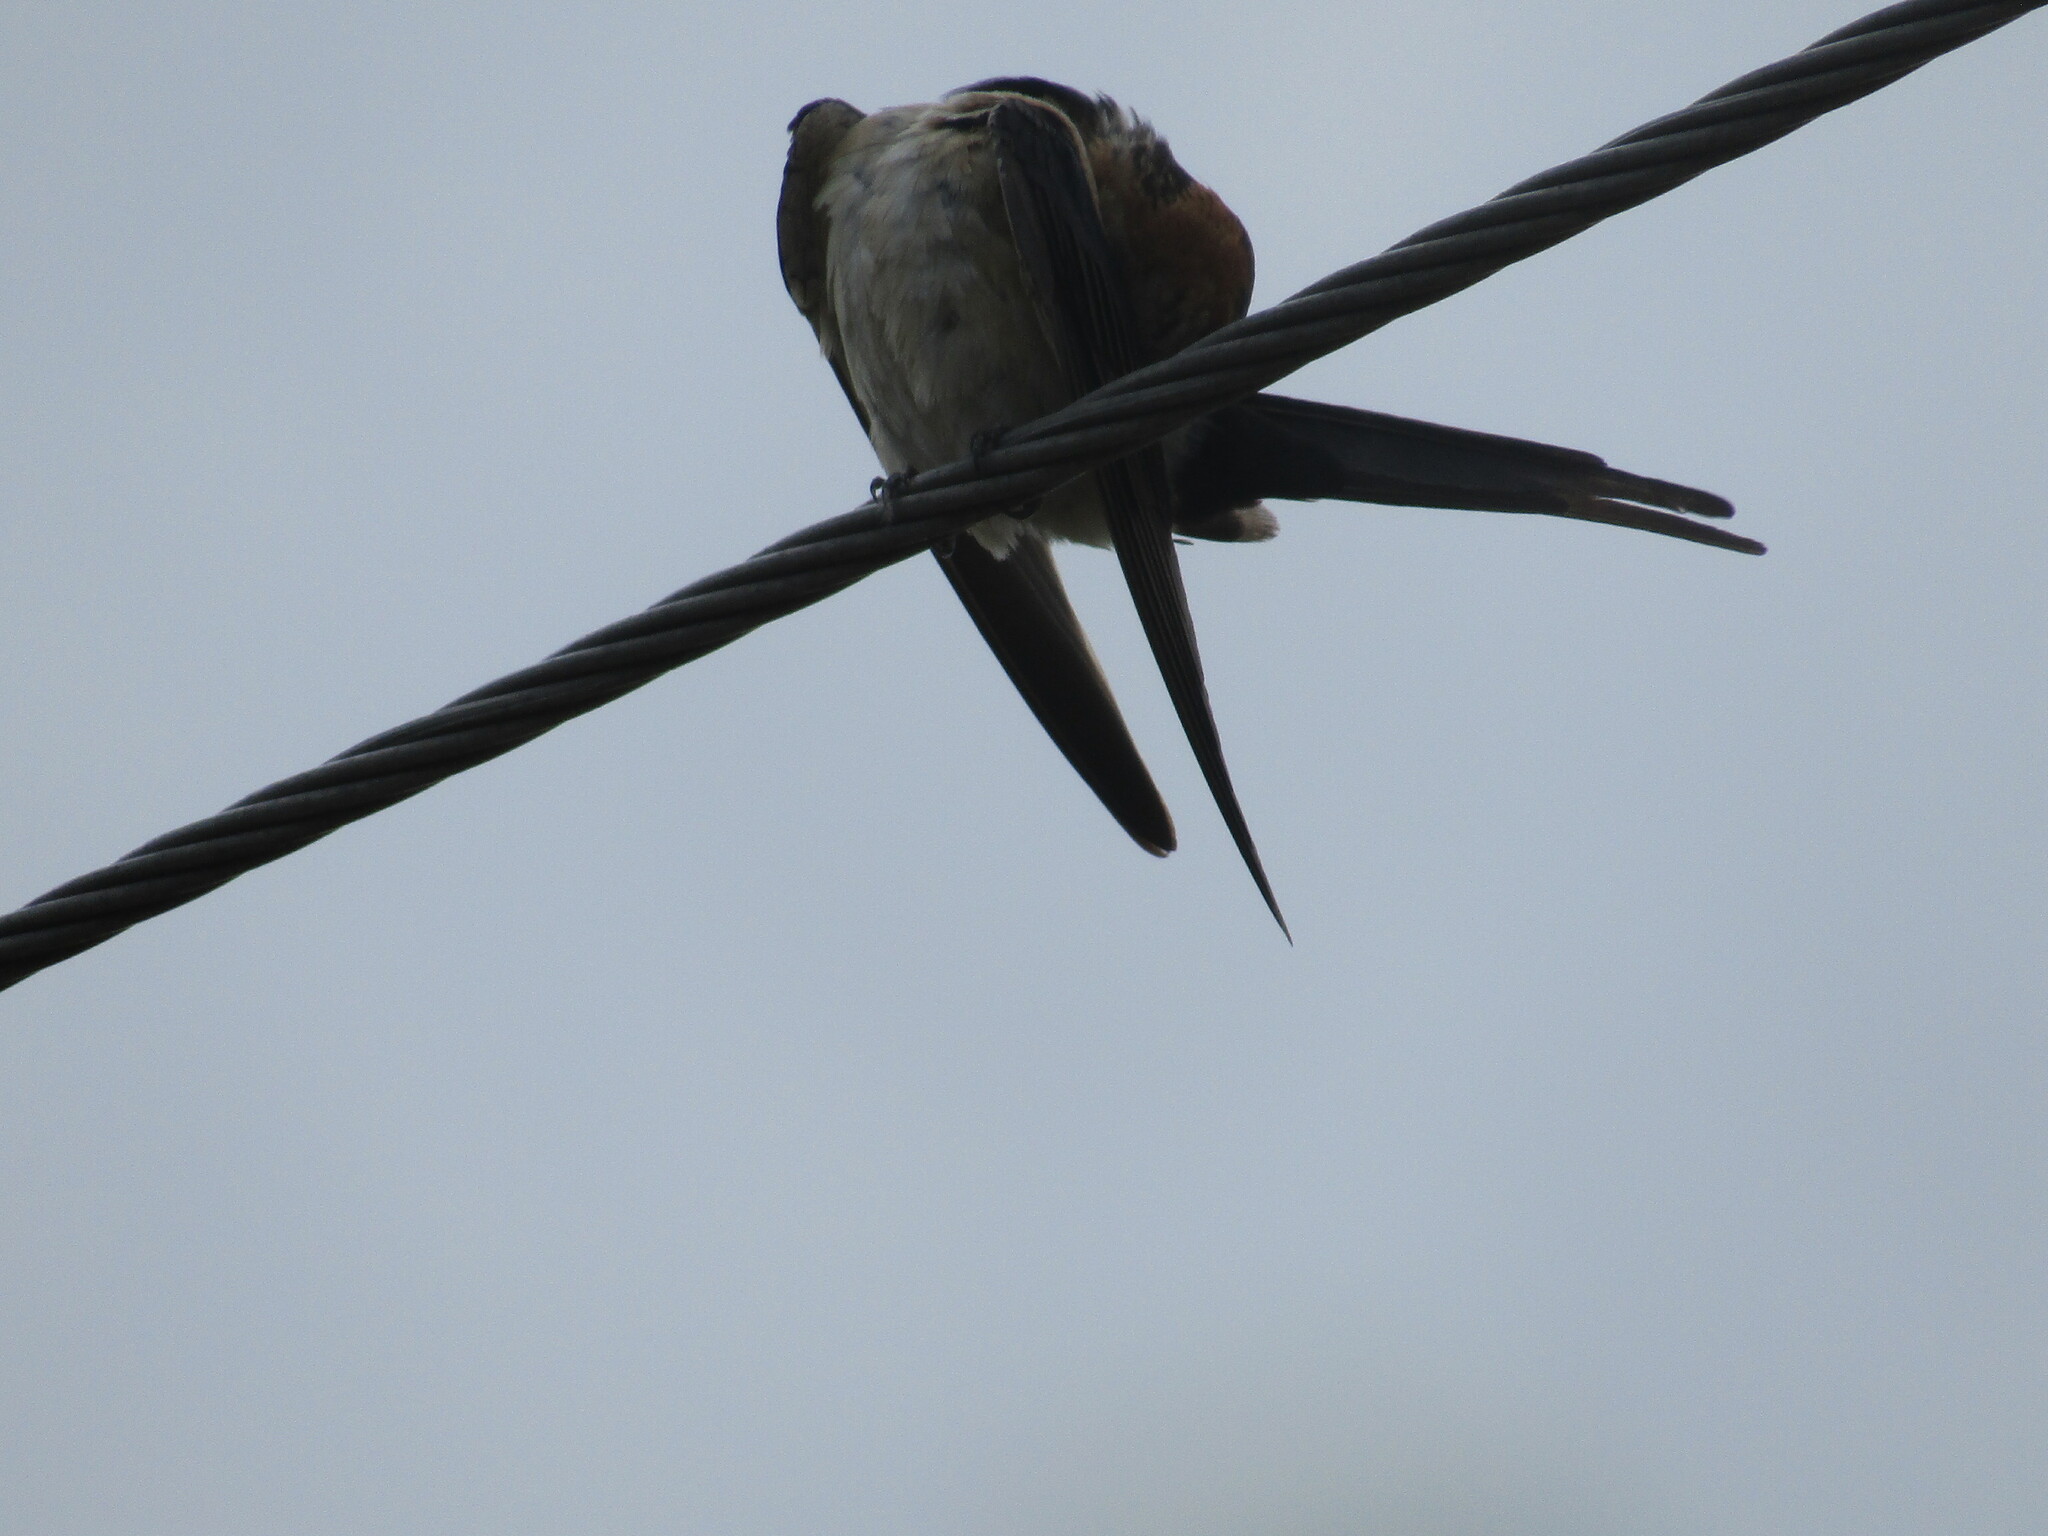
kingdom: Animalia
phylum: Chordata
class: Aves
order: Passeriformes
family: Hirundinidae
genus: Cecropis
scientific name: Cecropis daurica
